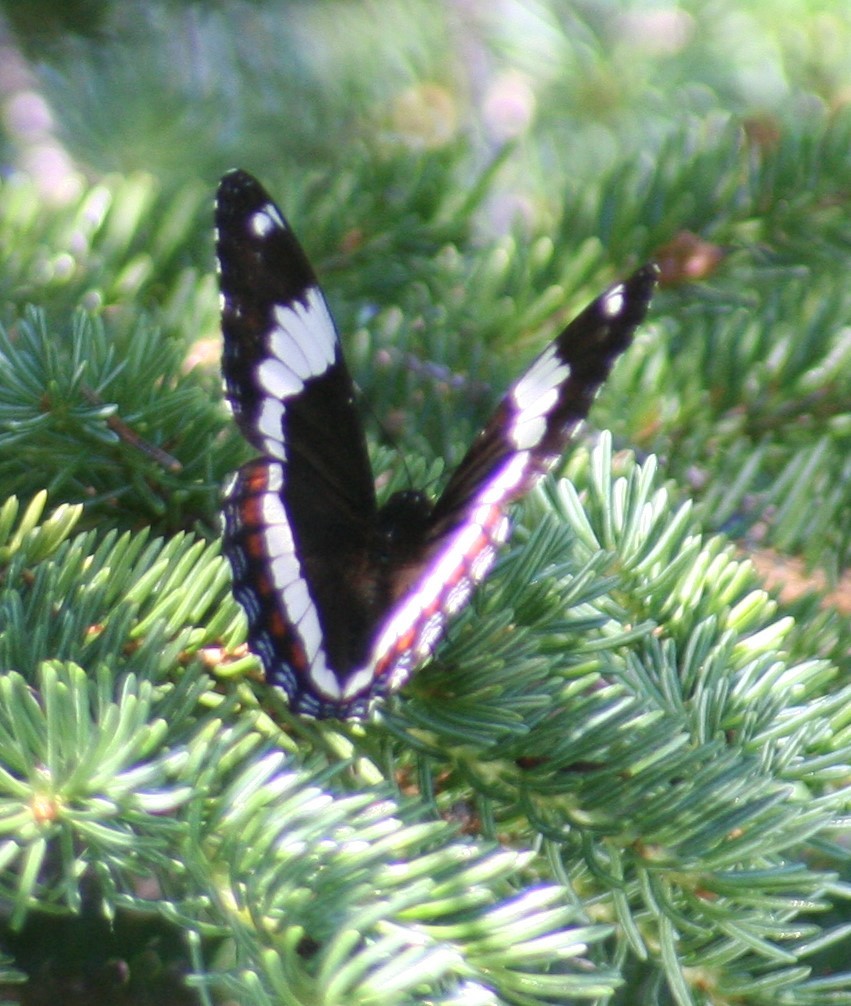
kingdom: Animalia
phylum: Arthropoda
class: Insecta
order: Lepidoptera
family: Nymphalidae
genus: Limenitis
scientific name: Limenitis arthemis
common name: Red-spotted admiral
